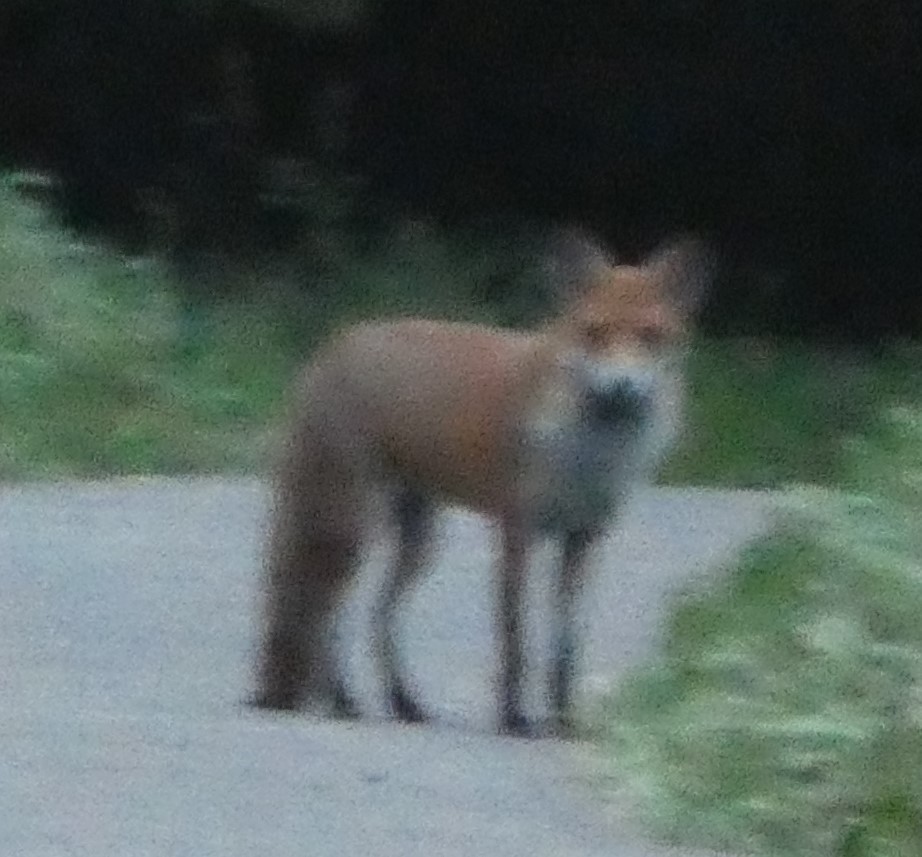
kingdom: Animalia
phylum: Chordata
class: Mammalia
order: Carnivora
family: Canidae
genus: Vulpes
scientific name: Vulpes vulpes
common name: Red fox
